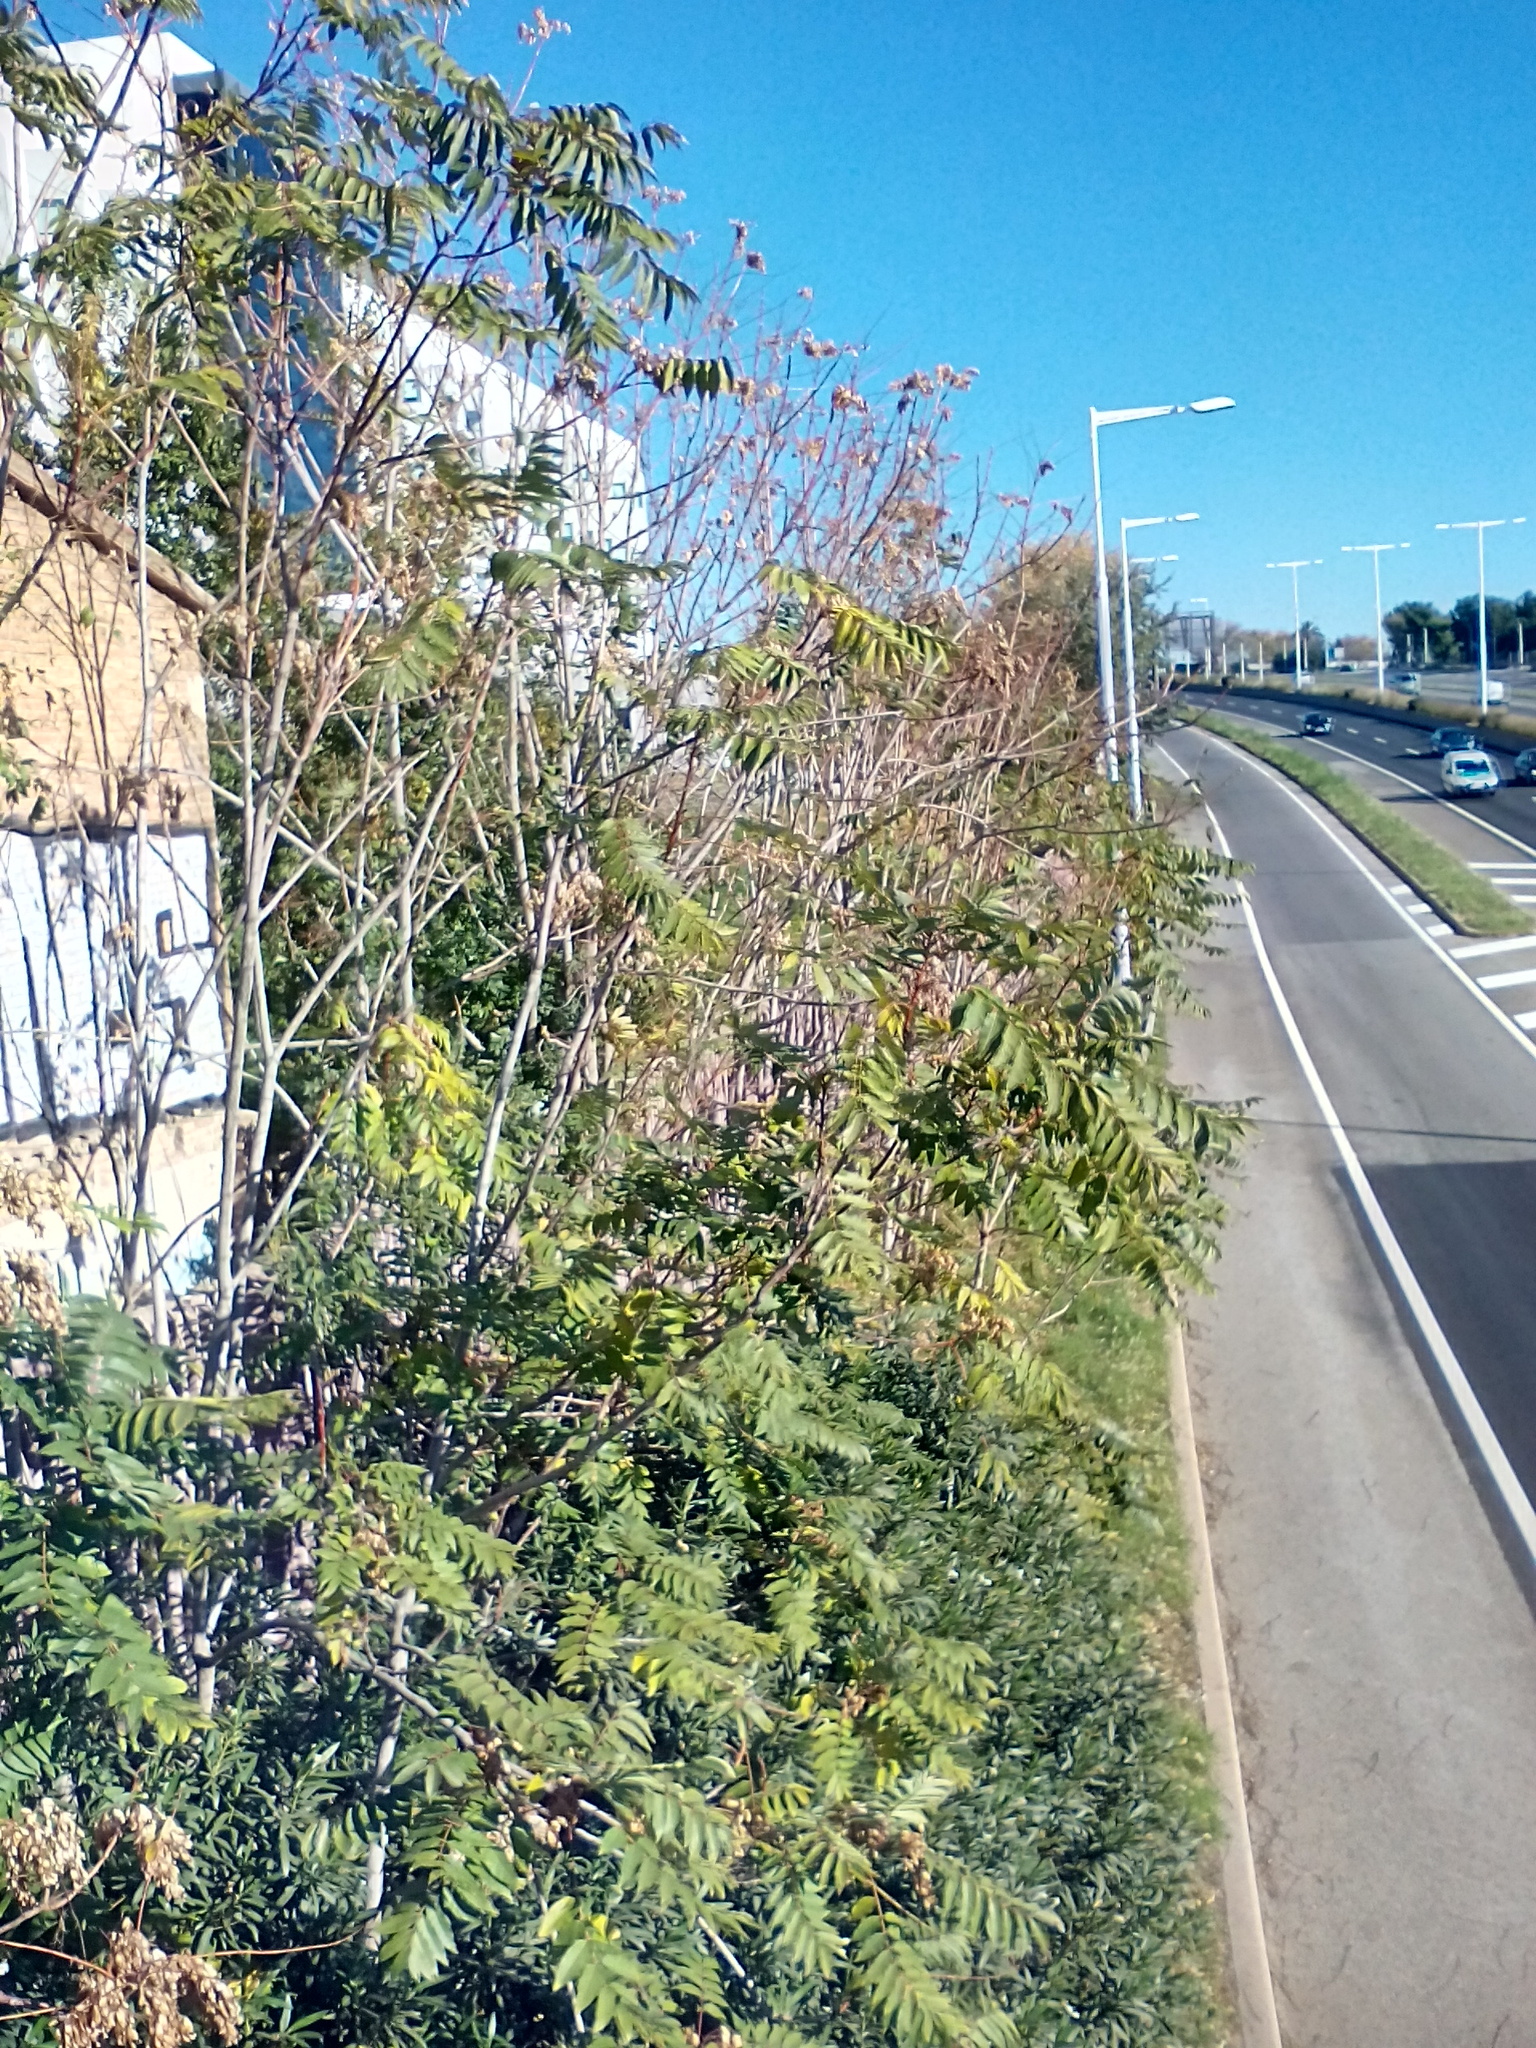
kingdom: Plantae
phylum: Tracheophyta
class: Magnoliopsida
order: Sapindales
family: Simaroubaceae
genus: Ailanthus
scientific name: Ailanthus altissima
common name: Tree-of-heaven
